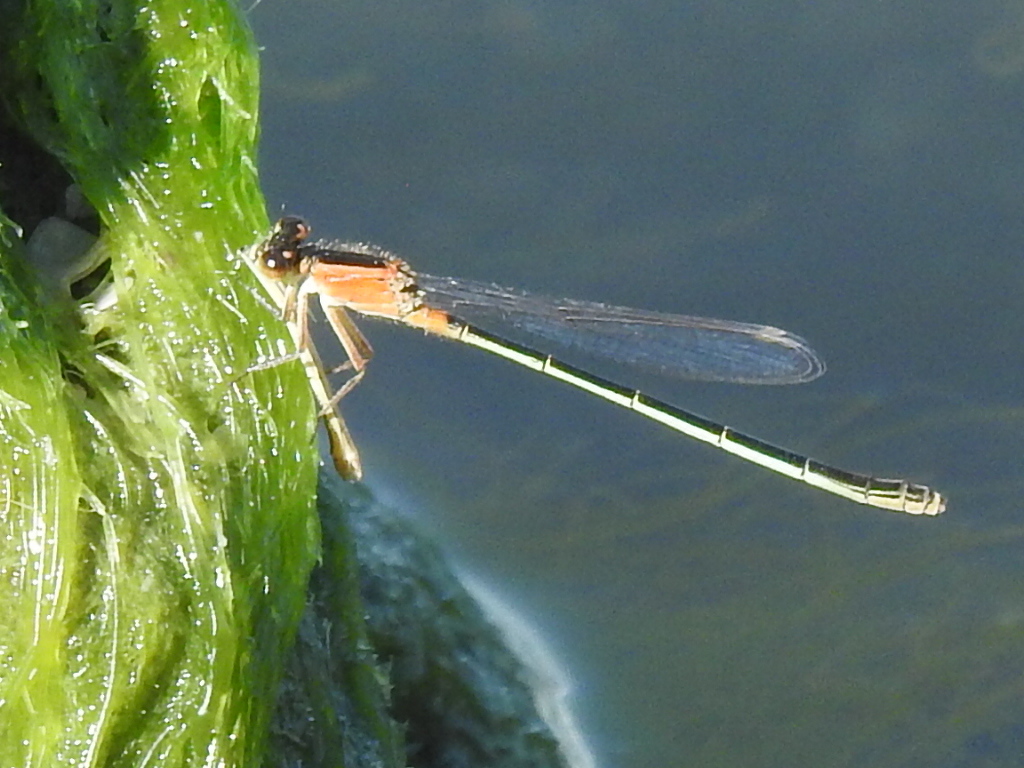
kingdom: Animalia
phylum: Arthropoda
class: Insecta
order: Odonata
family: Coenagrionidae
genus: Ischnura
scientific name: Ischnura ramburii
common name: Rambur's forktail
